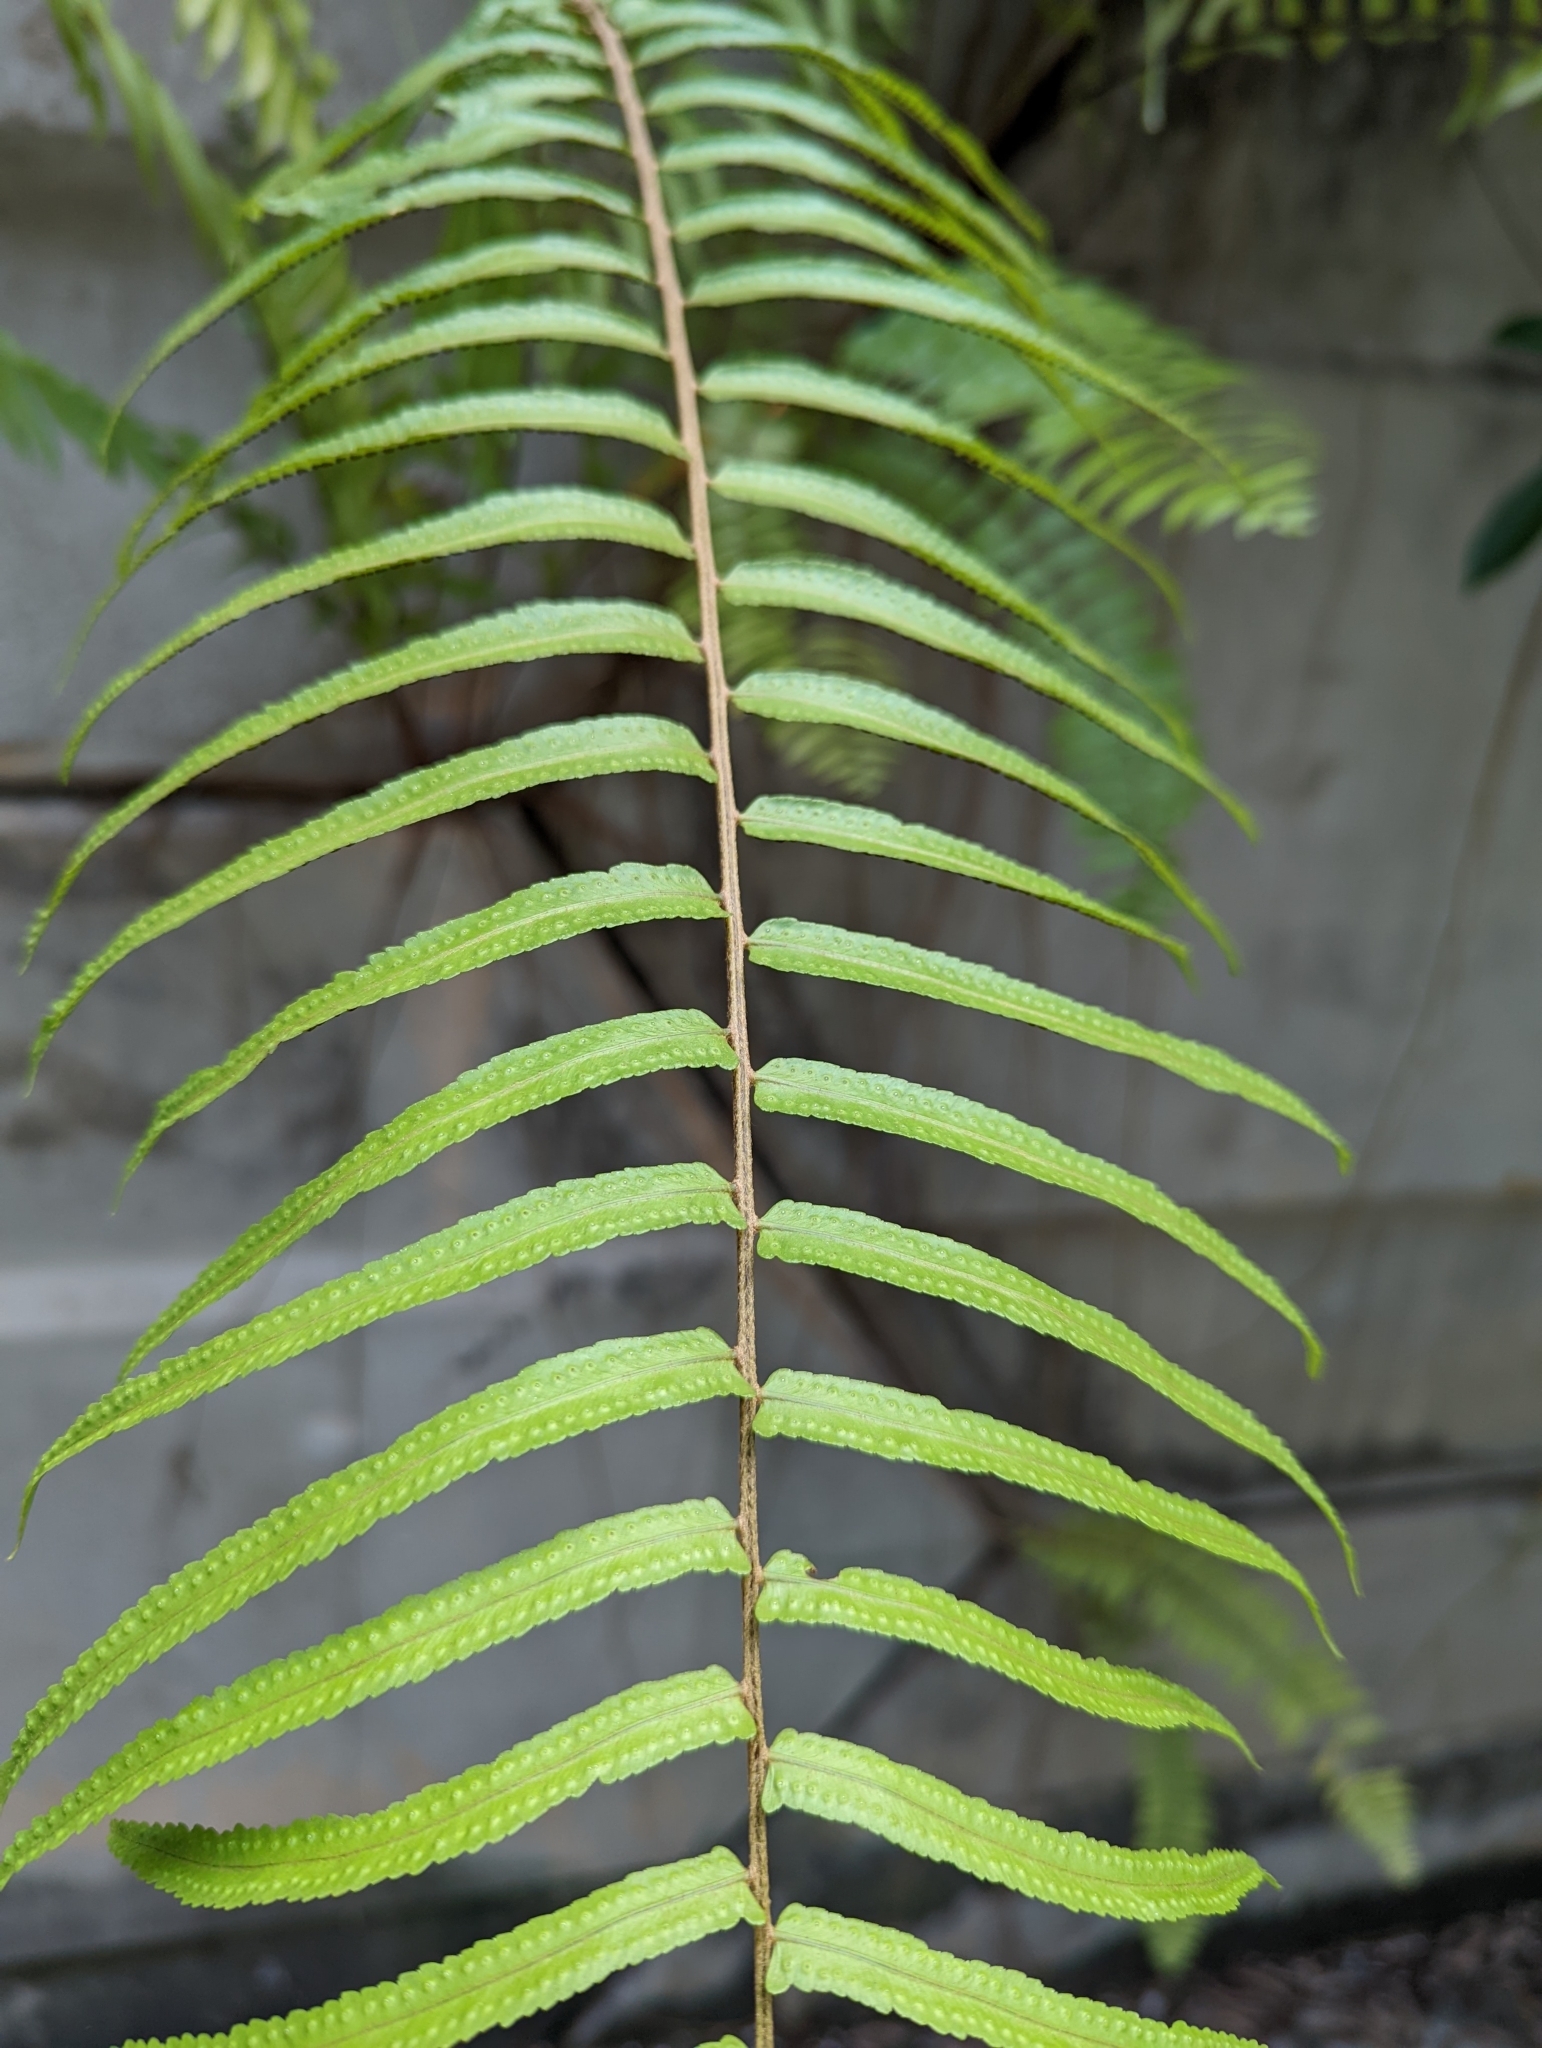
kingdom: Plantae
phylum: Tracheophyta
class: Polypodiopsida
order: Polypodiales
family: Nephrolepidaceae
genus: Nephrolepis
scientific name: Nephrolepis biserrata
